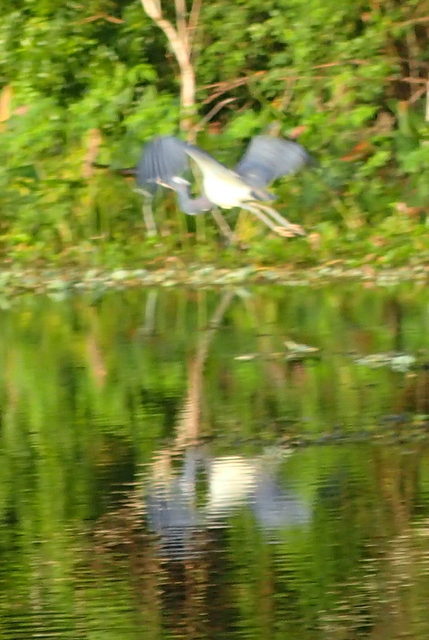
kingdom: Animalia
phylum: Chordata
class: Aves
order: Pelecaniformes
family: Ardeidae
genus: Egretta
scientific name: Egretta tricolor
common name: Tricolored heron
